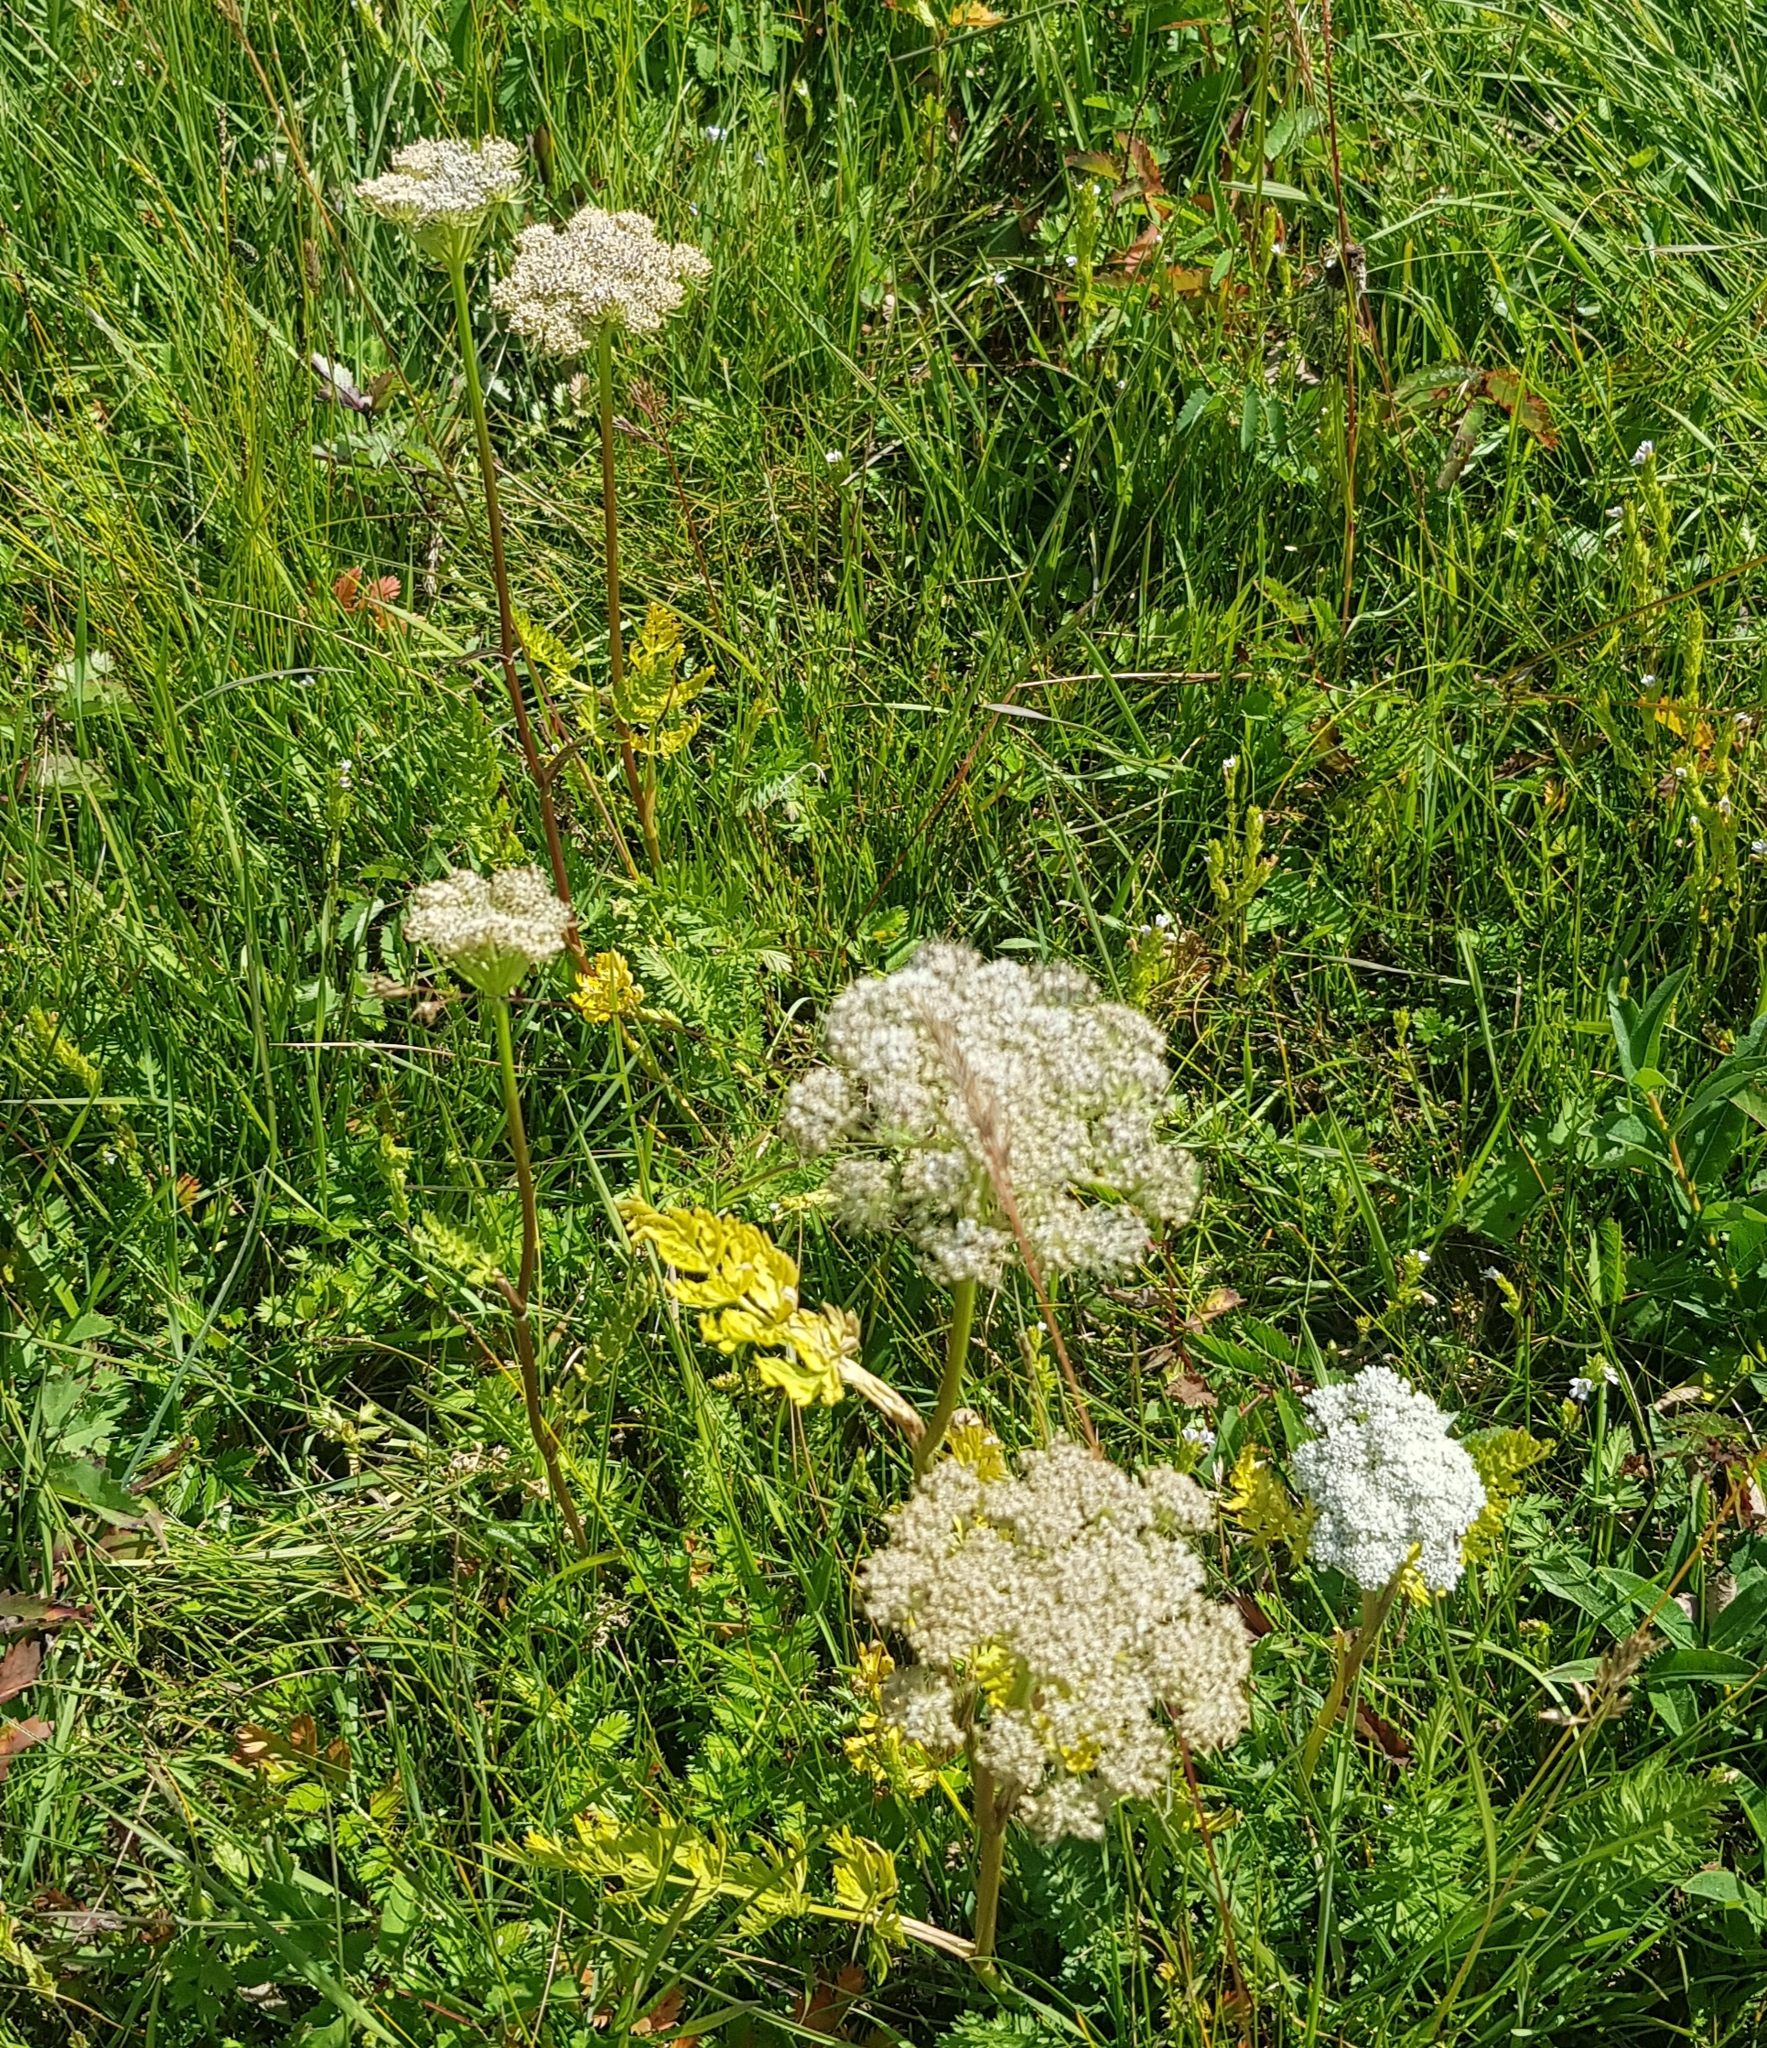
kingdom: Plantae
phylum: Tracheophyta
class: Magnoliopsida
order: Apiales
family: Apiaceae
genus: Seseli
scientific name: Seseli condensatum
